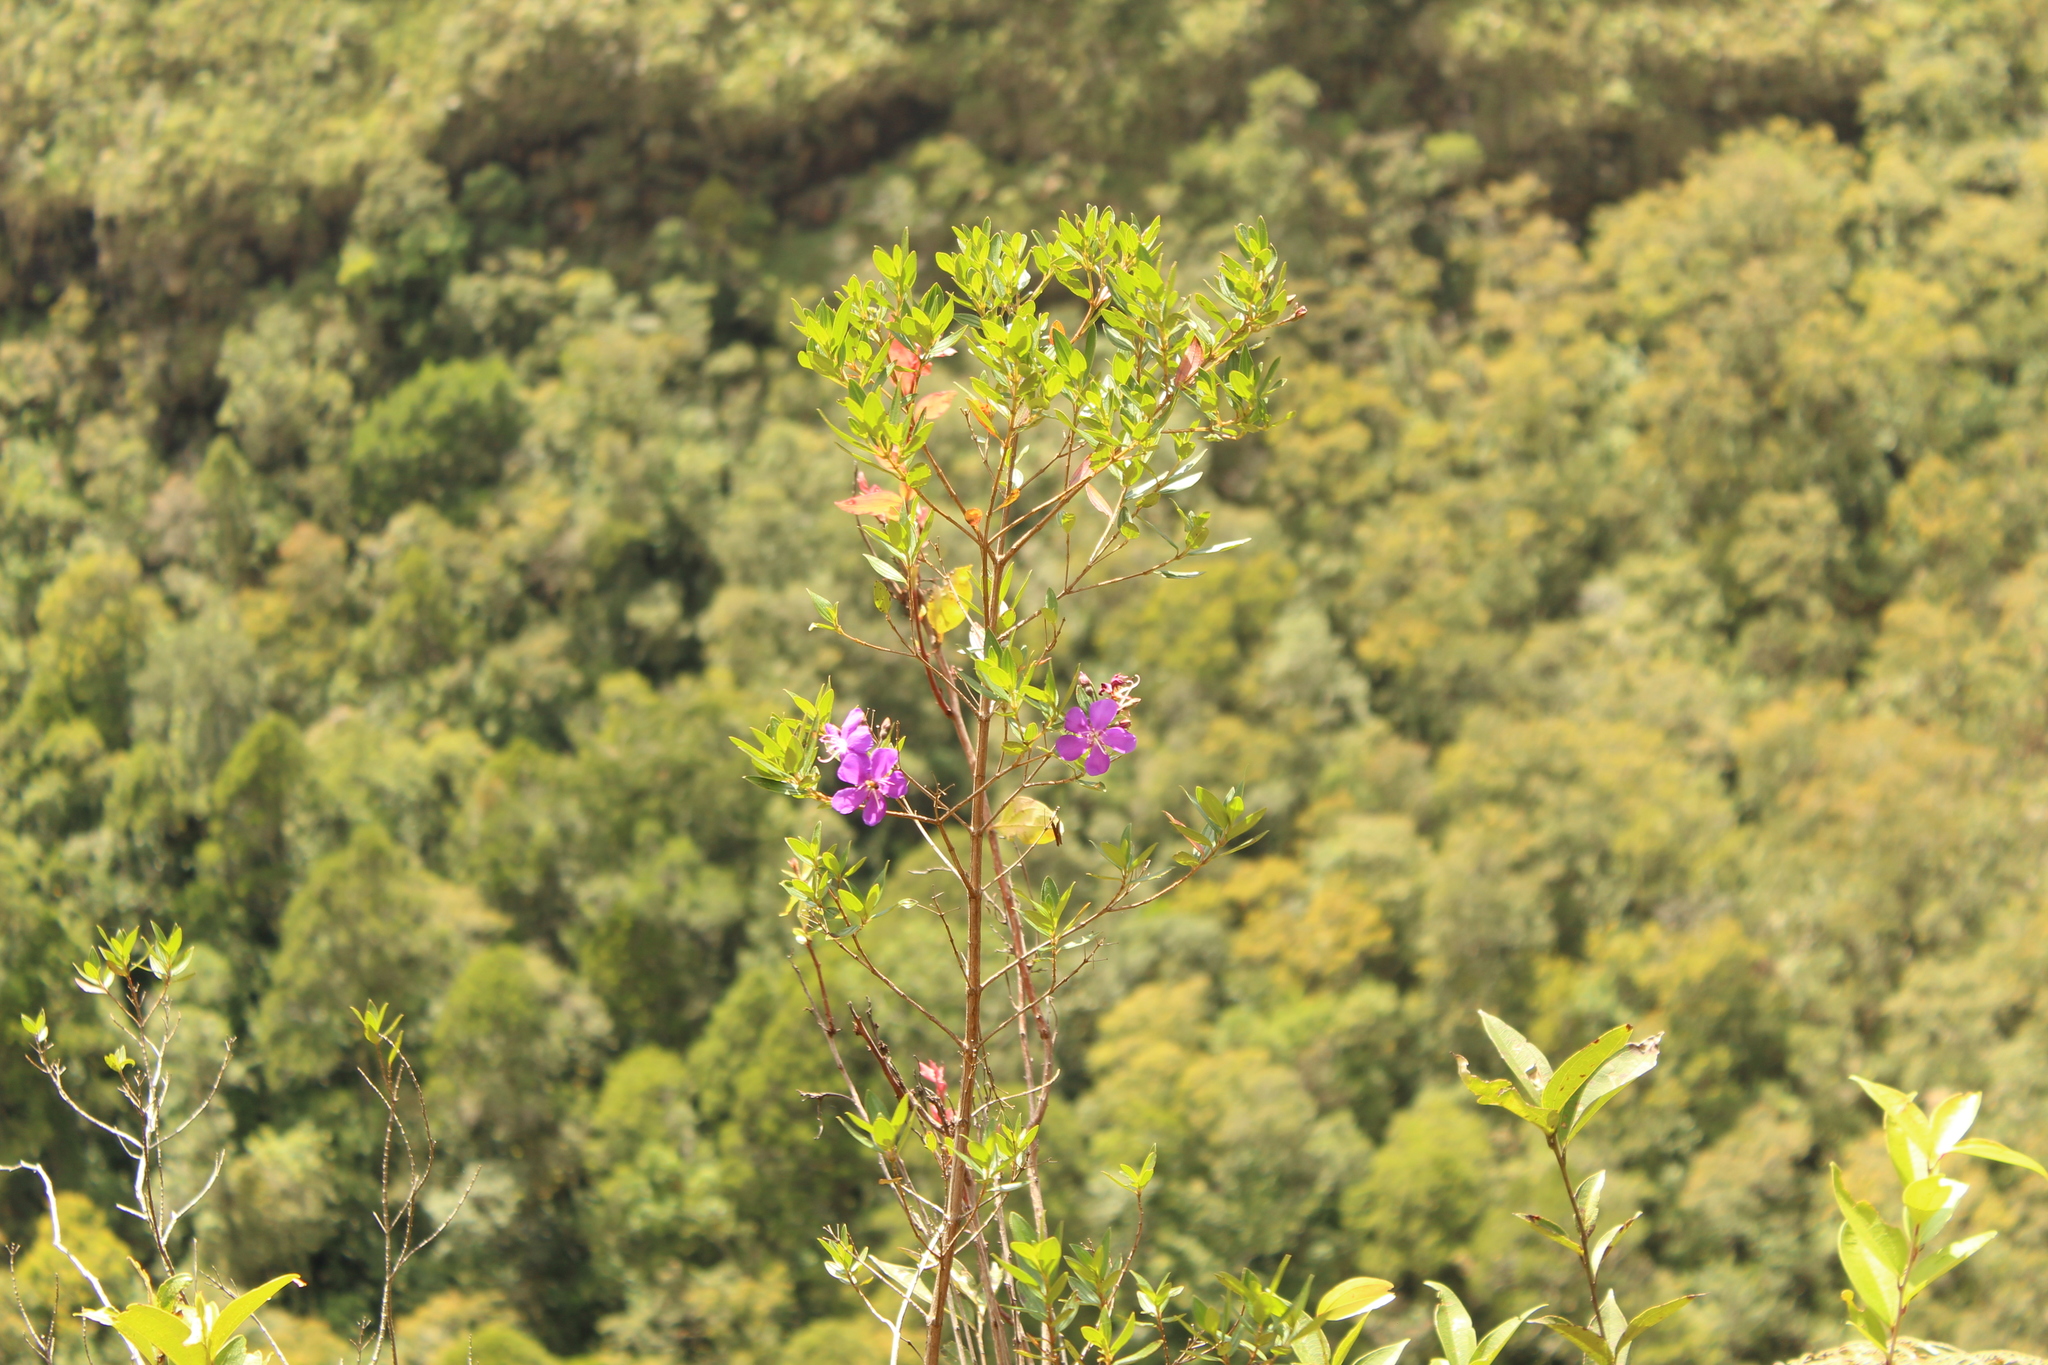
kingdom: Plantae
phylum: Tracheophyta
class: Magnoliopsida
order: Myrtales
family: Melastomataceae
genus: Pleroma
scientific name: Pleroma martiale
